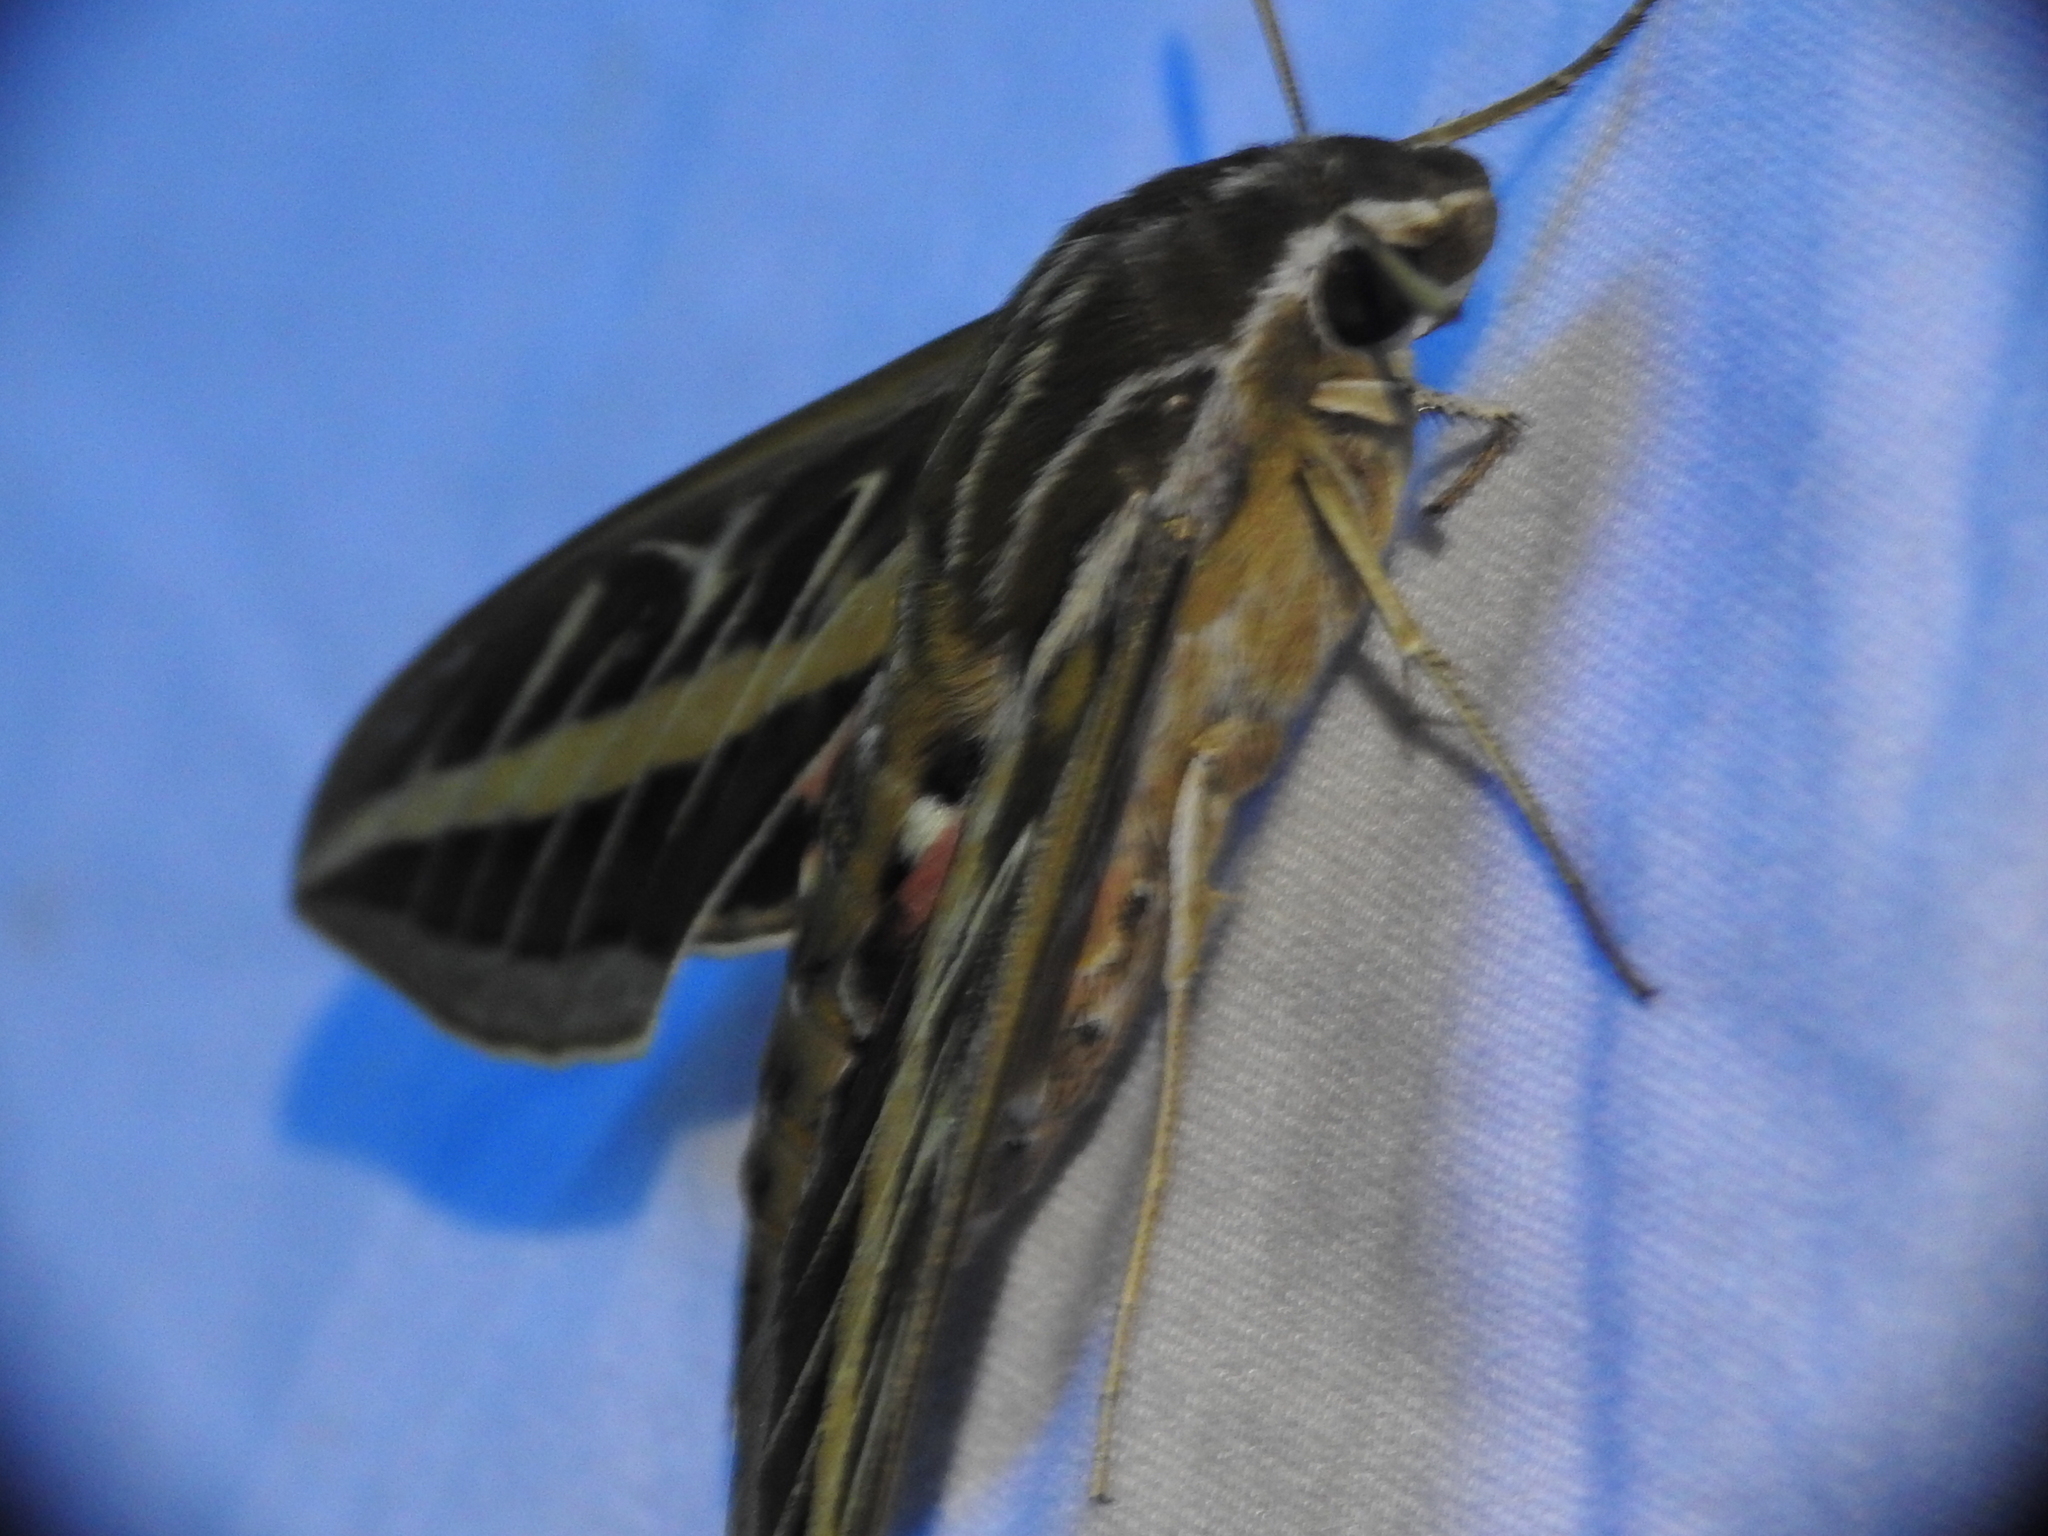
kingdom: Animalia
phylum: Arthropoda
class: Insecta
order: Lepidoptera
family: Sphingidae
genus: Hyles
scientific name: Hyles lineata
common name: White-lined sphinx
